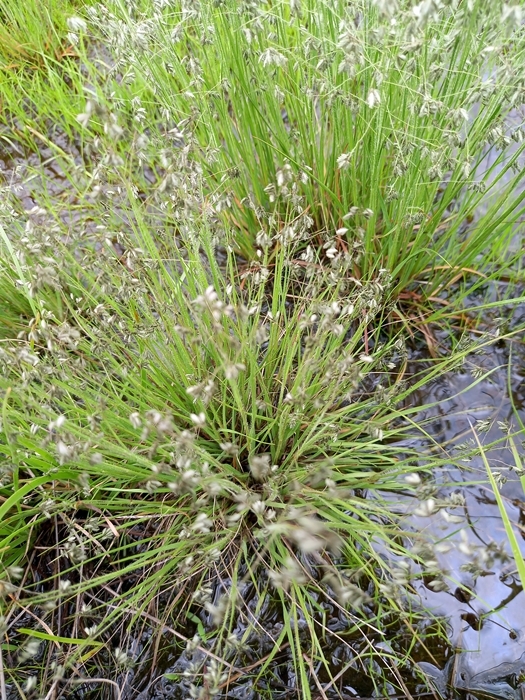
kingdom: Plantae
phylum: Tracheophyta
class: Liliopsida
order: Poales
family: Poaceae
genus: Eragrostis
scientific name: Eragrostis hispida
